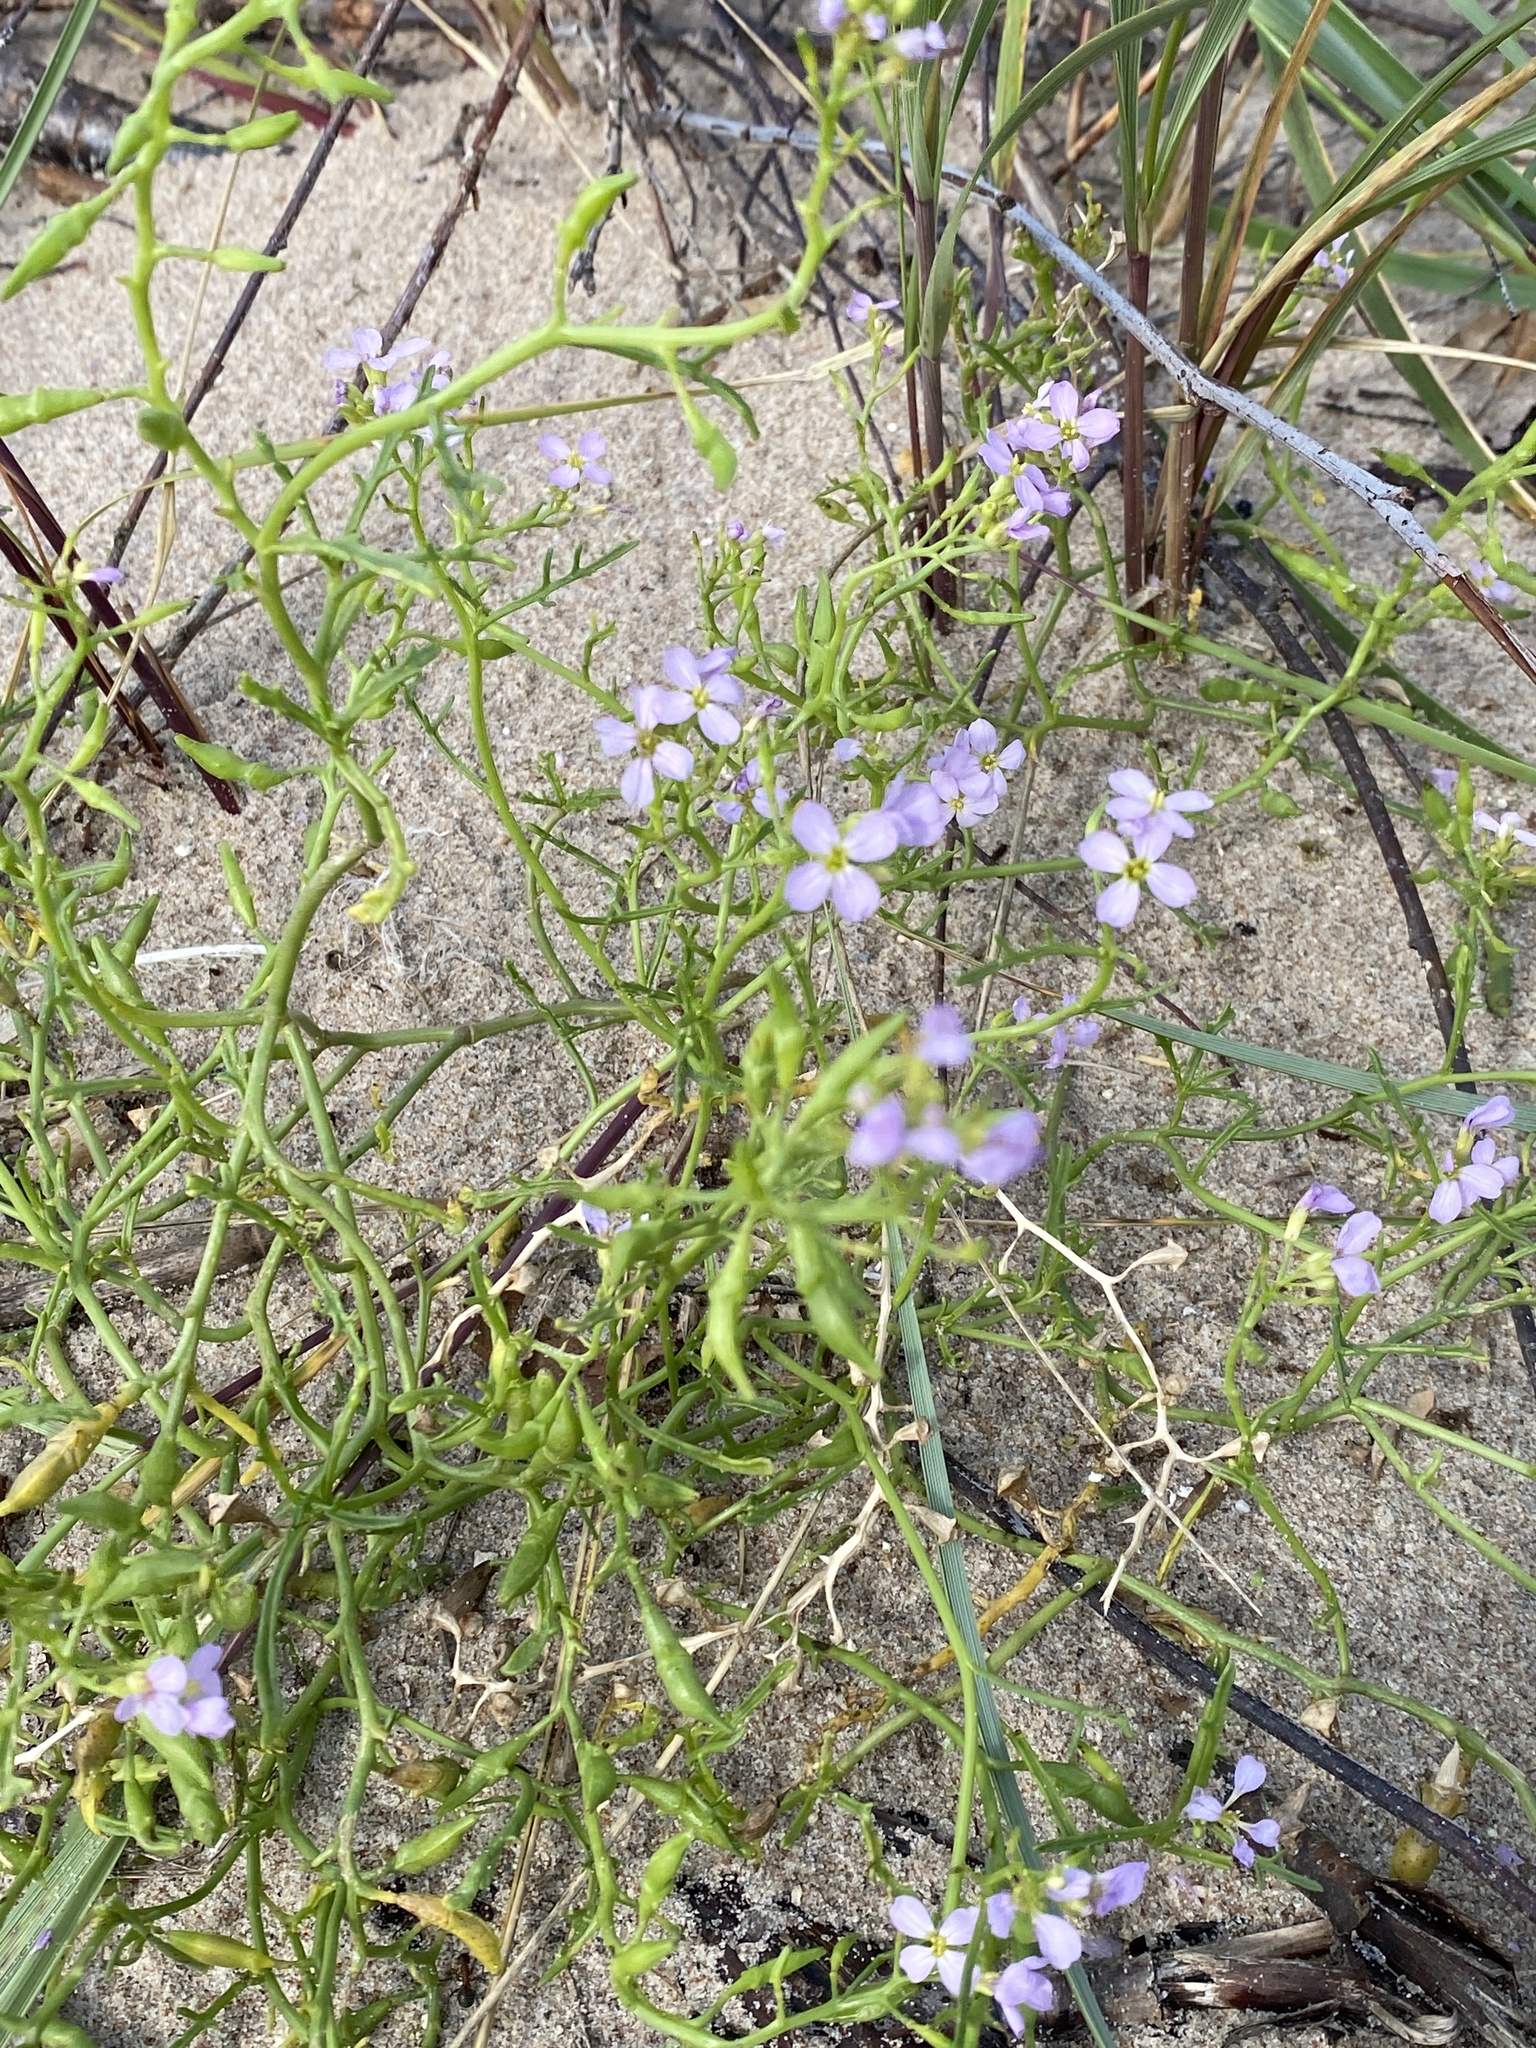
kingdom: Plantae
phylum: Tracheophyta
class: Magnoliopsida
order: Brassicales
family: Brassicaceae
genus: Cakile
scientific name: Cakile maritima
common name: Sea rocket
